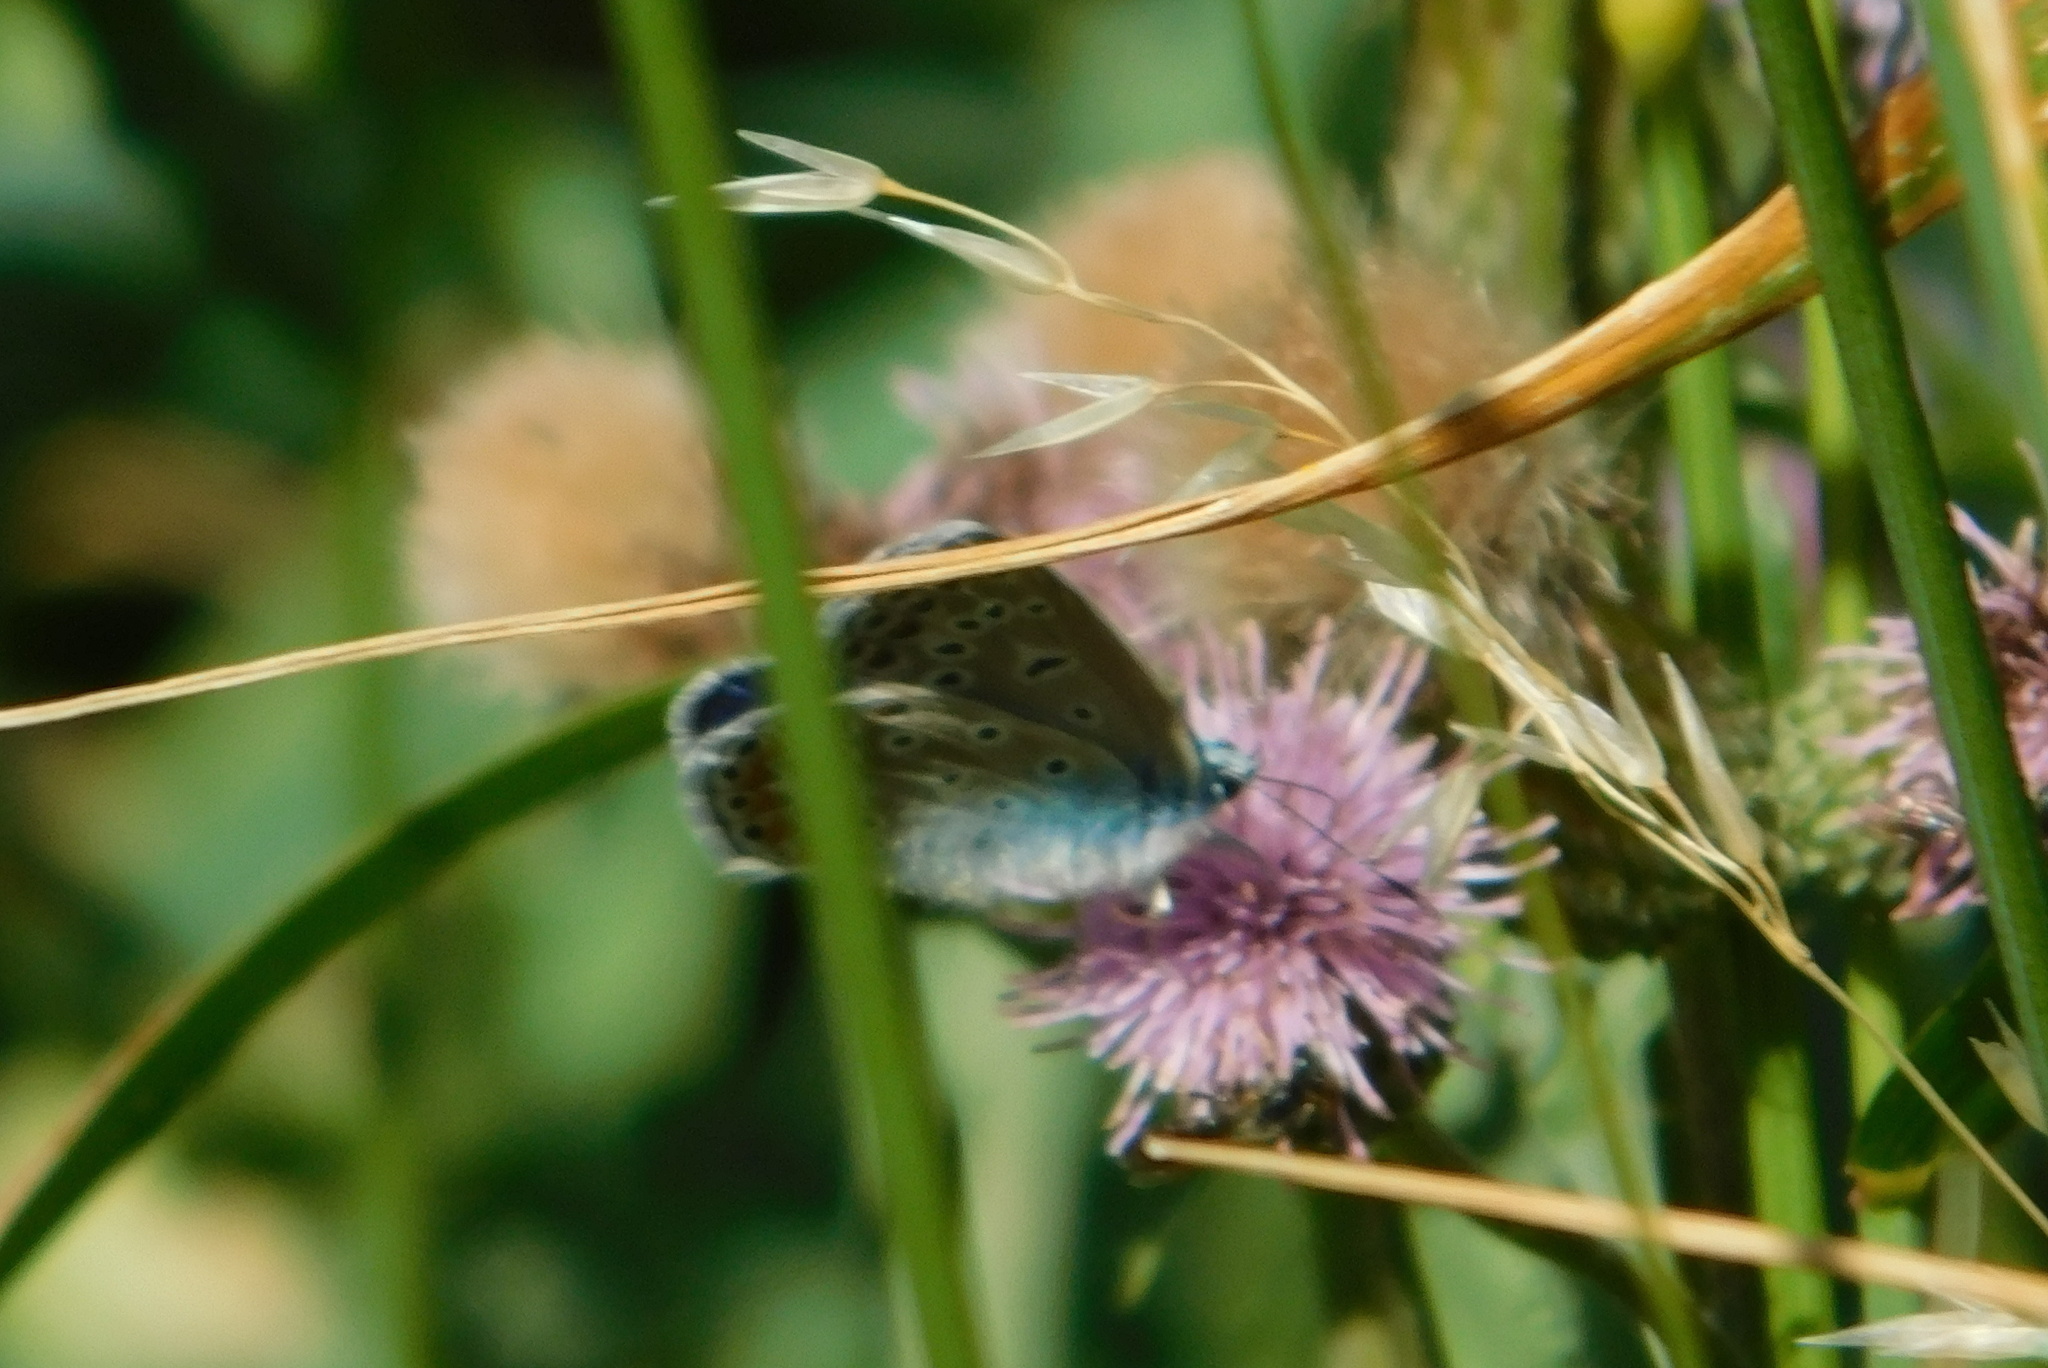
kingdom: Animalia
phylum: Arthropoda
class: Insecta
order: Lepidoptera
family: Lycaenidae
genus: Polyommatus
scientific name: Polyommatus icarus
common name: Common blue
